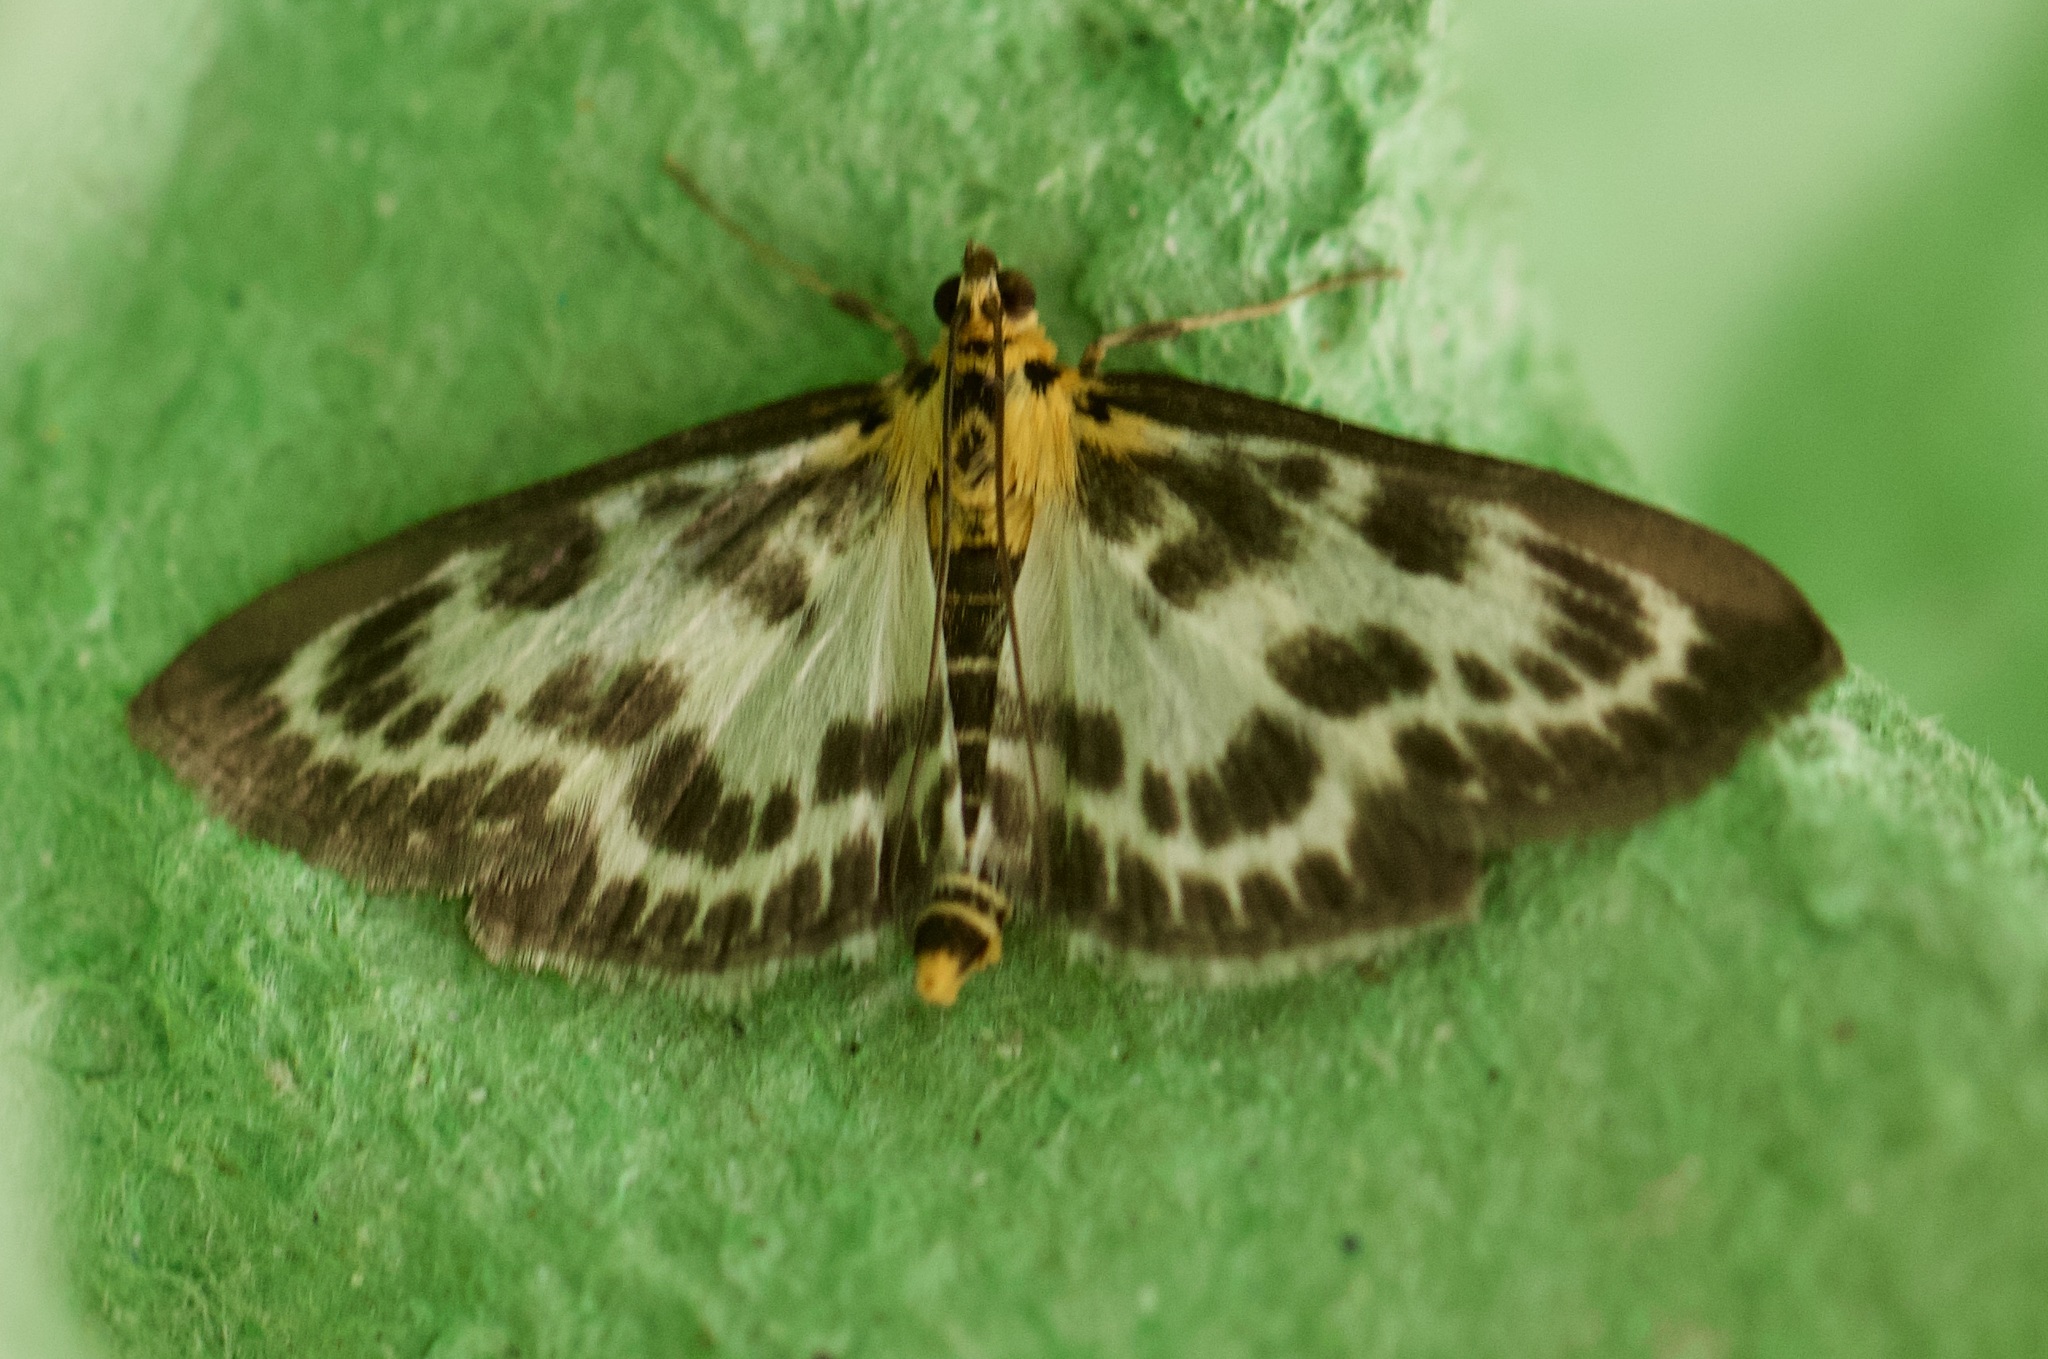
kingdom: Animalia
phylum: Arthropoda
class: Insecta
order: Lepidoptera
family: Crambidae
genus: Anania
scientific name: Anania hortulata
